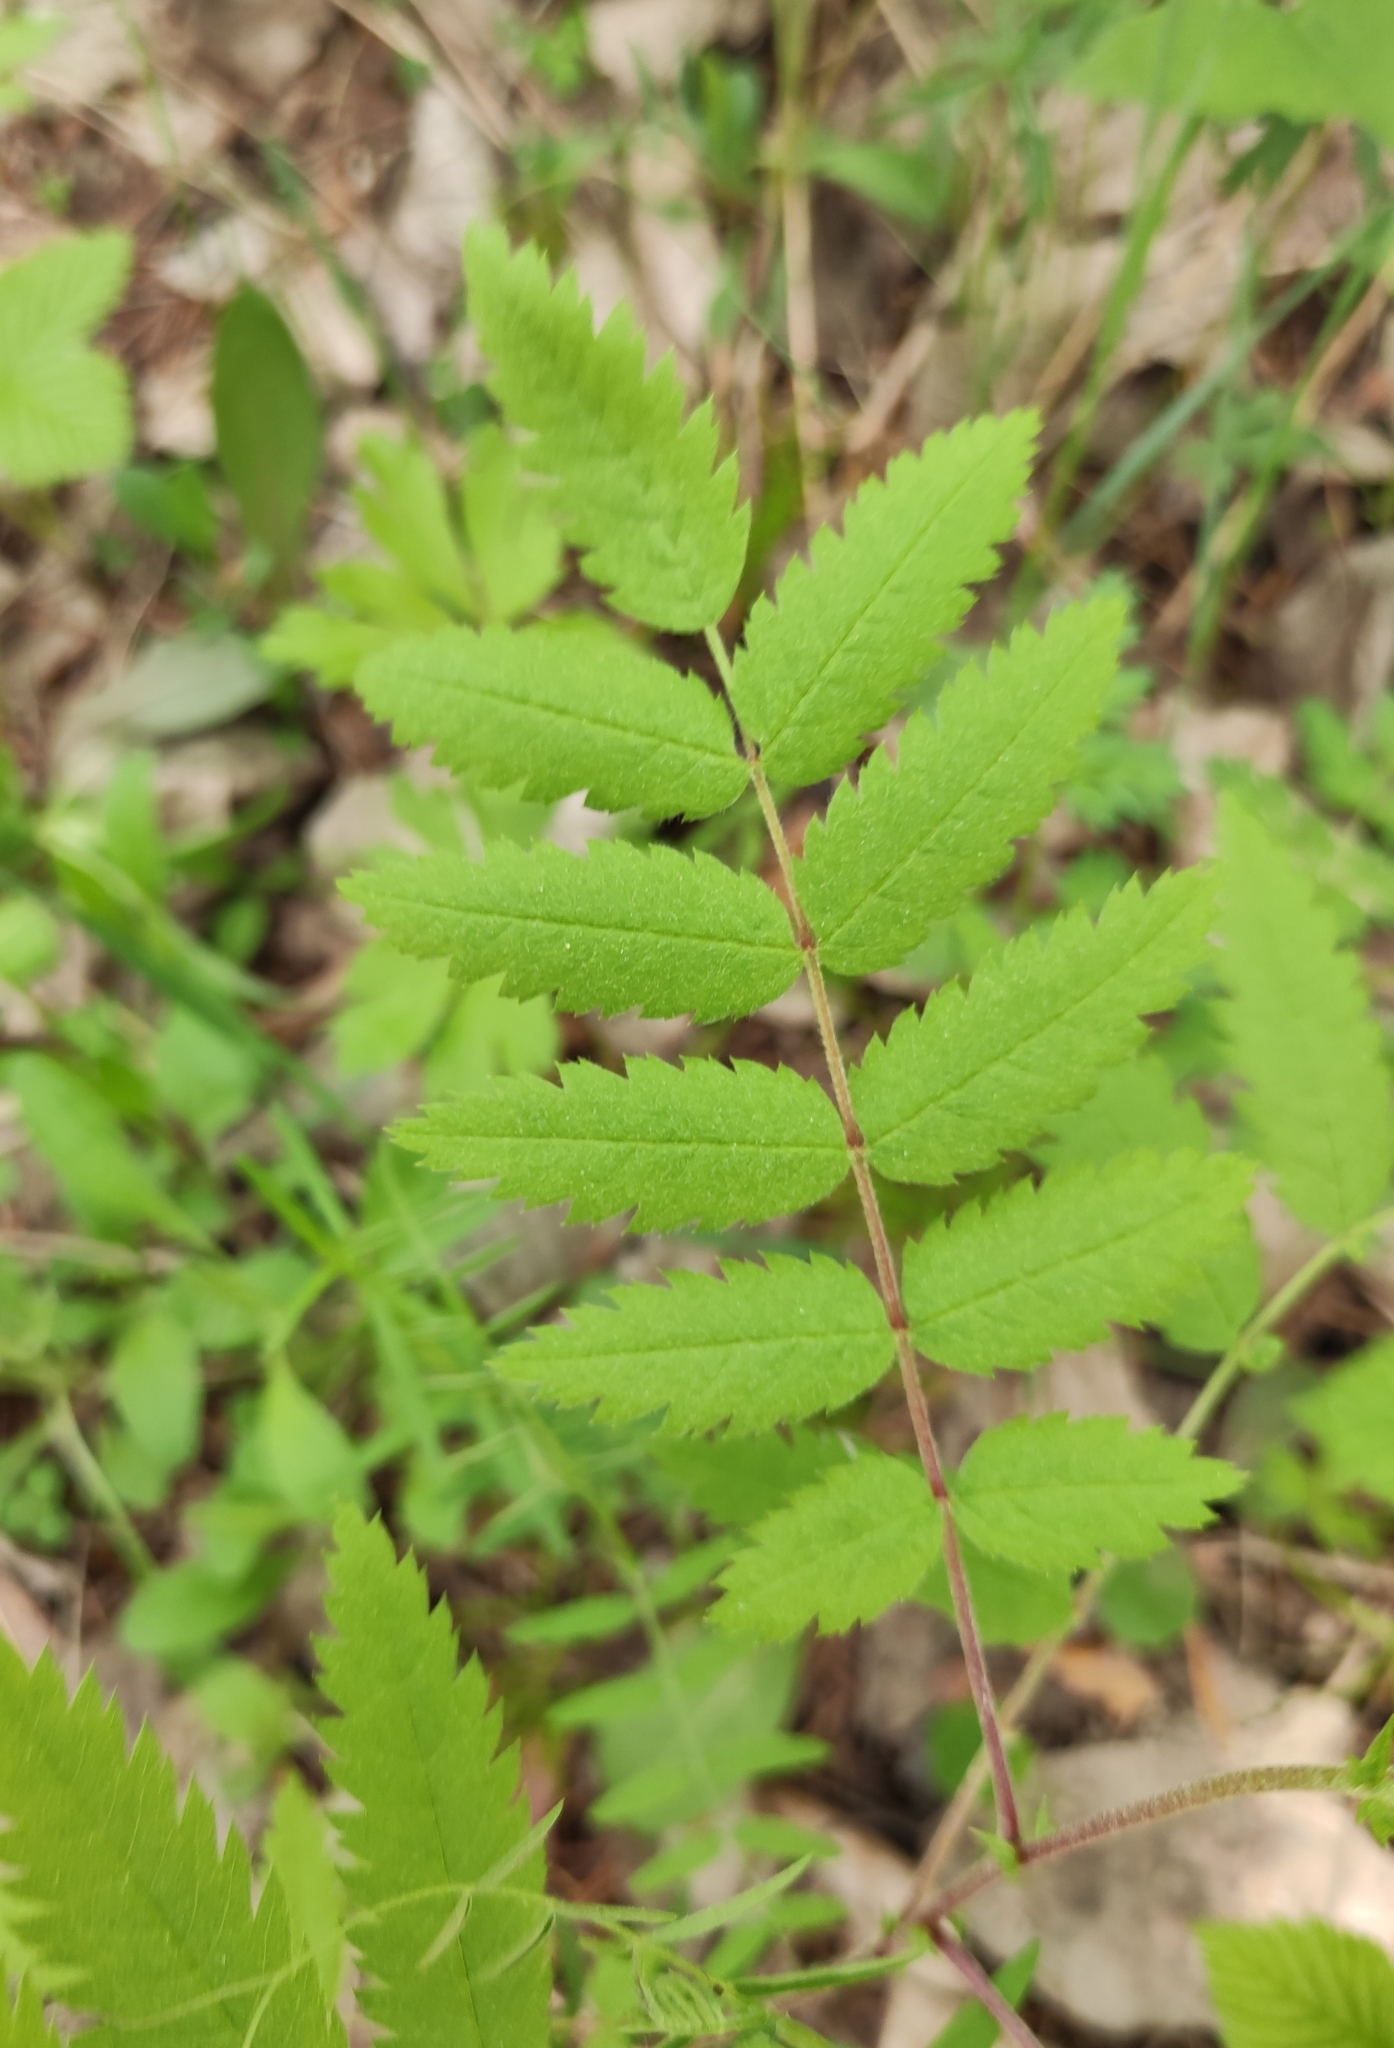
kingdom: Plantae
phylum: Tracheophyta
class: Magnoliopsida
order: Rosales
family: Rosaceae
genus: Sorbus
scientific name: Sorbus aucuparia
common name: Rowan
